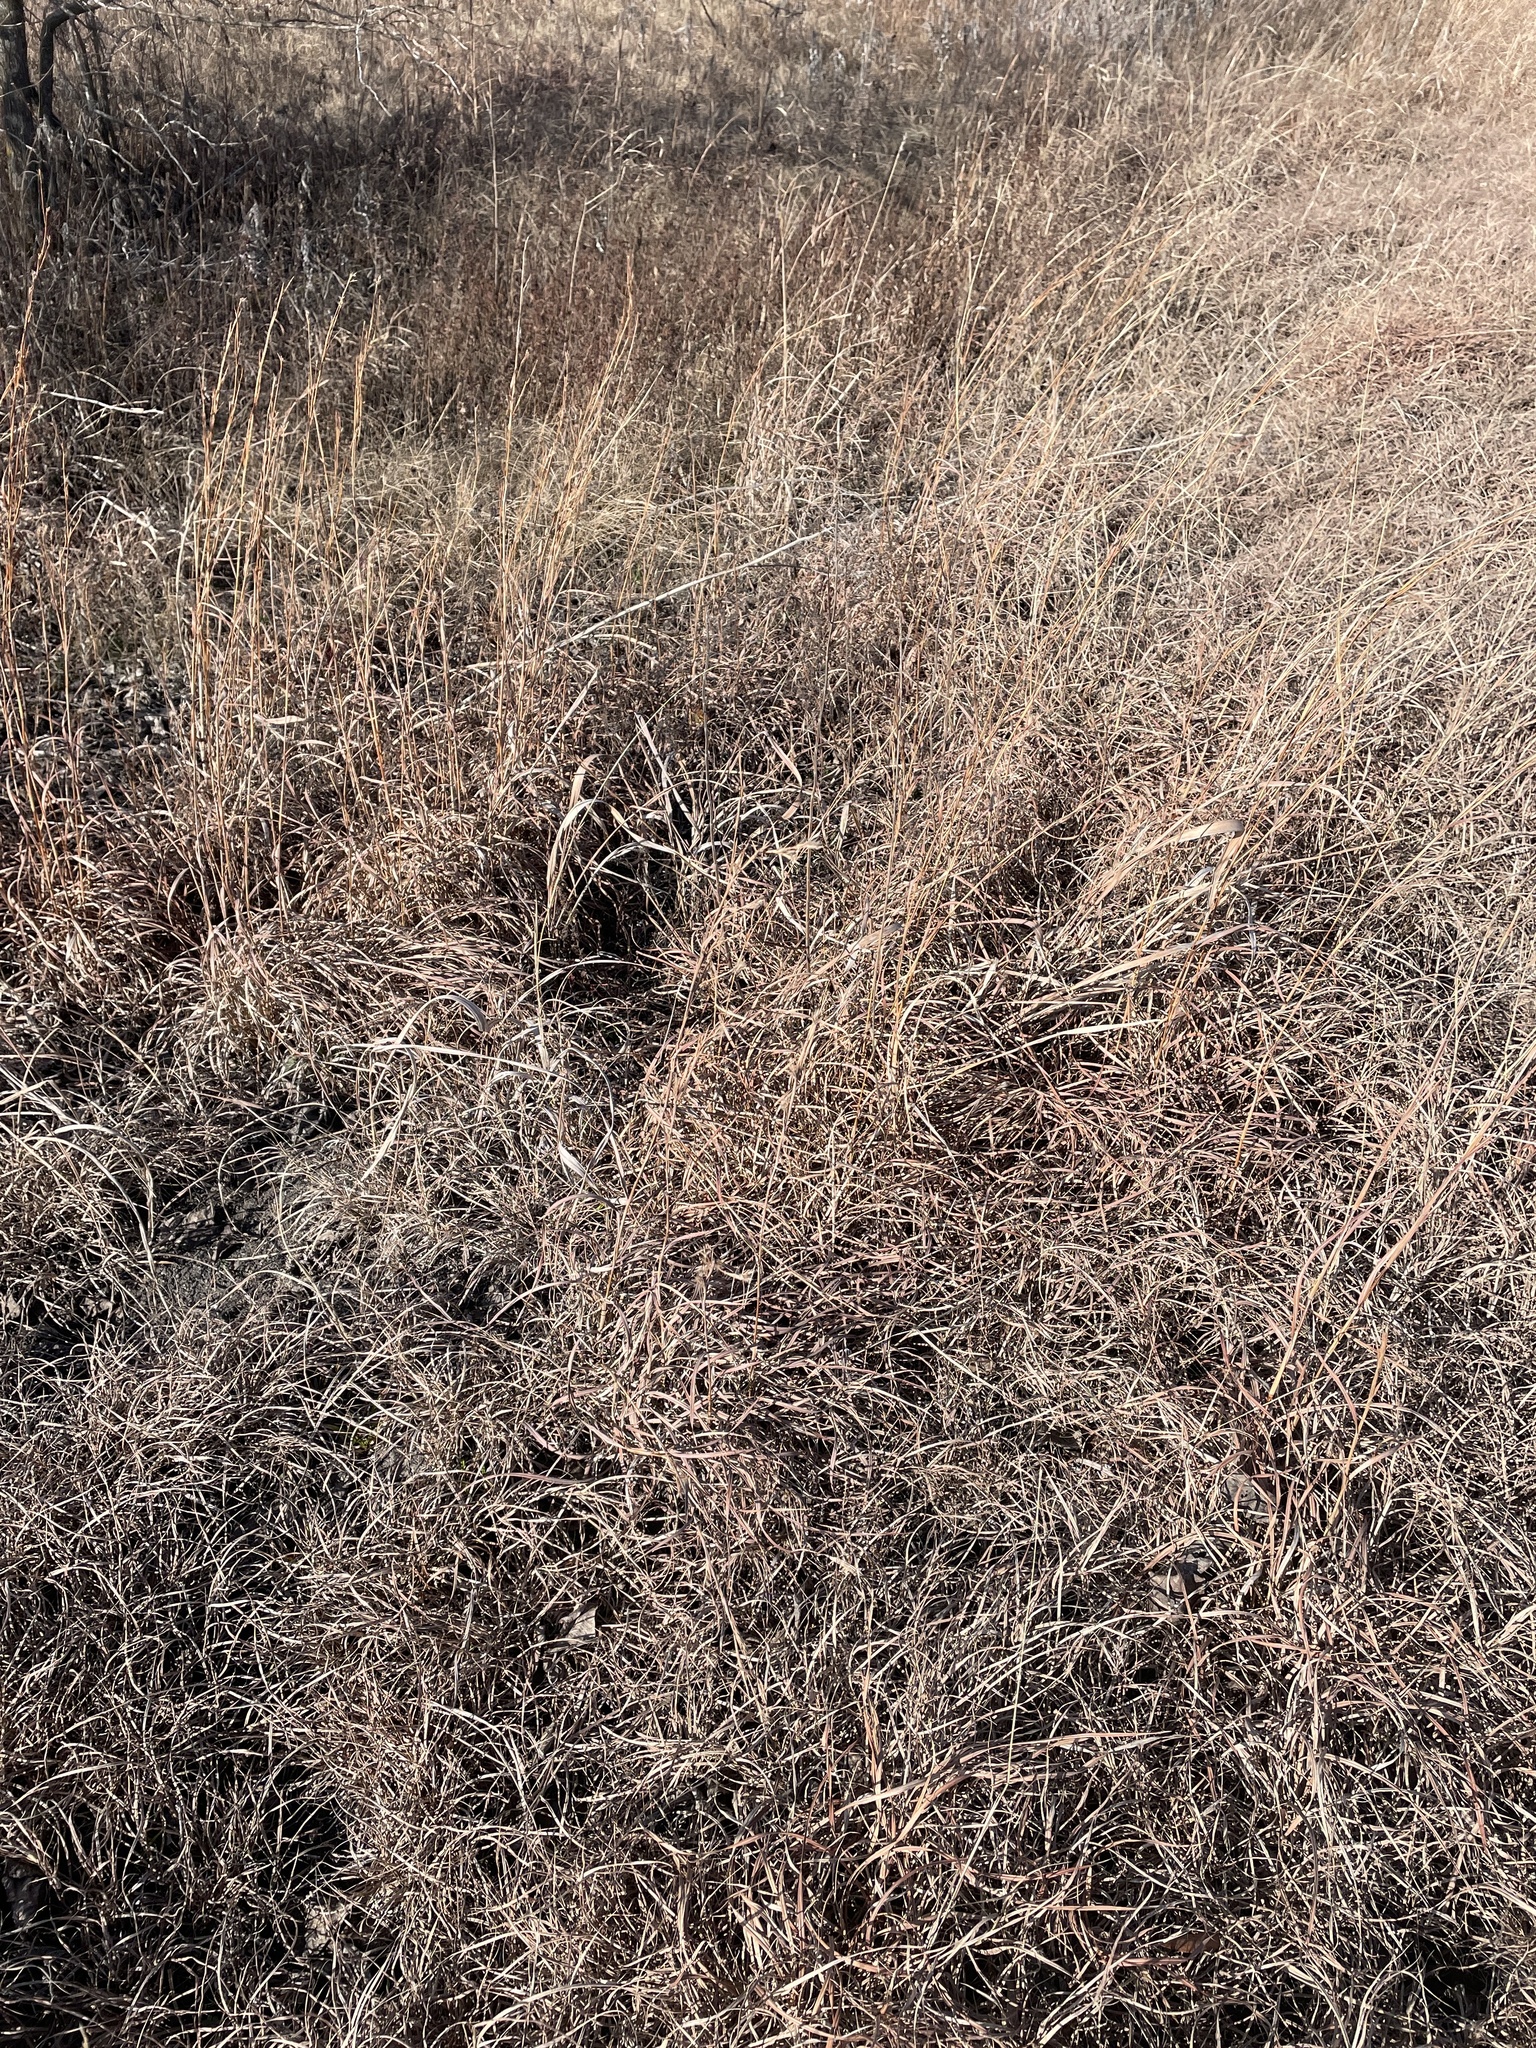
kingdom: Plantae
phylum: Tracheophyta
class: Liliopsida
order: Poales
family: Poaceae
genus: Schizachyrium
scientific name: Schizachyrium scoparium
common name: Little bluestem
